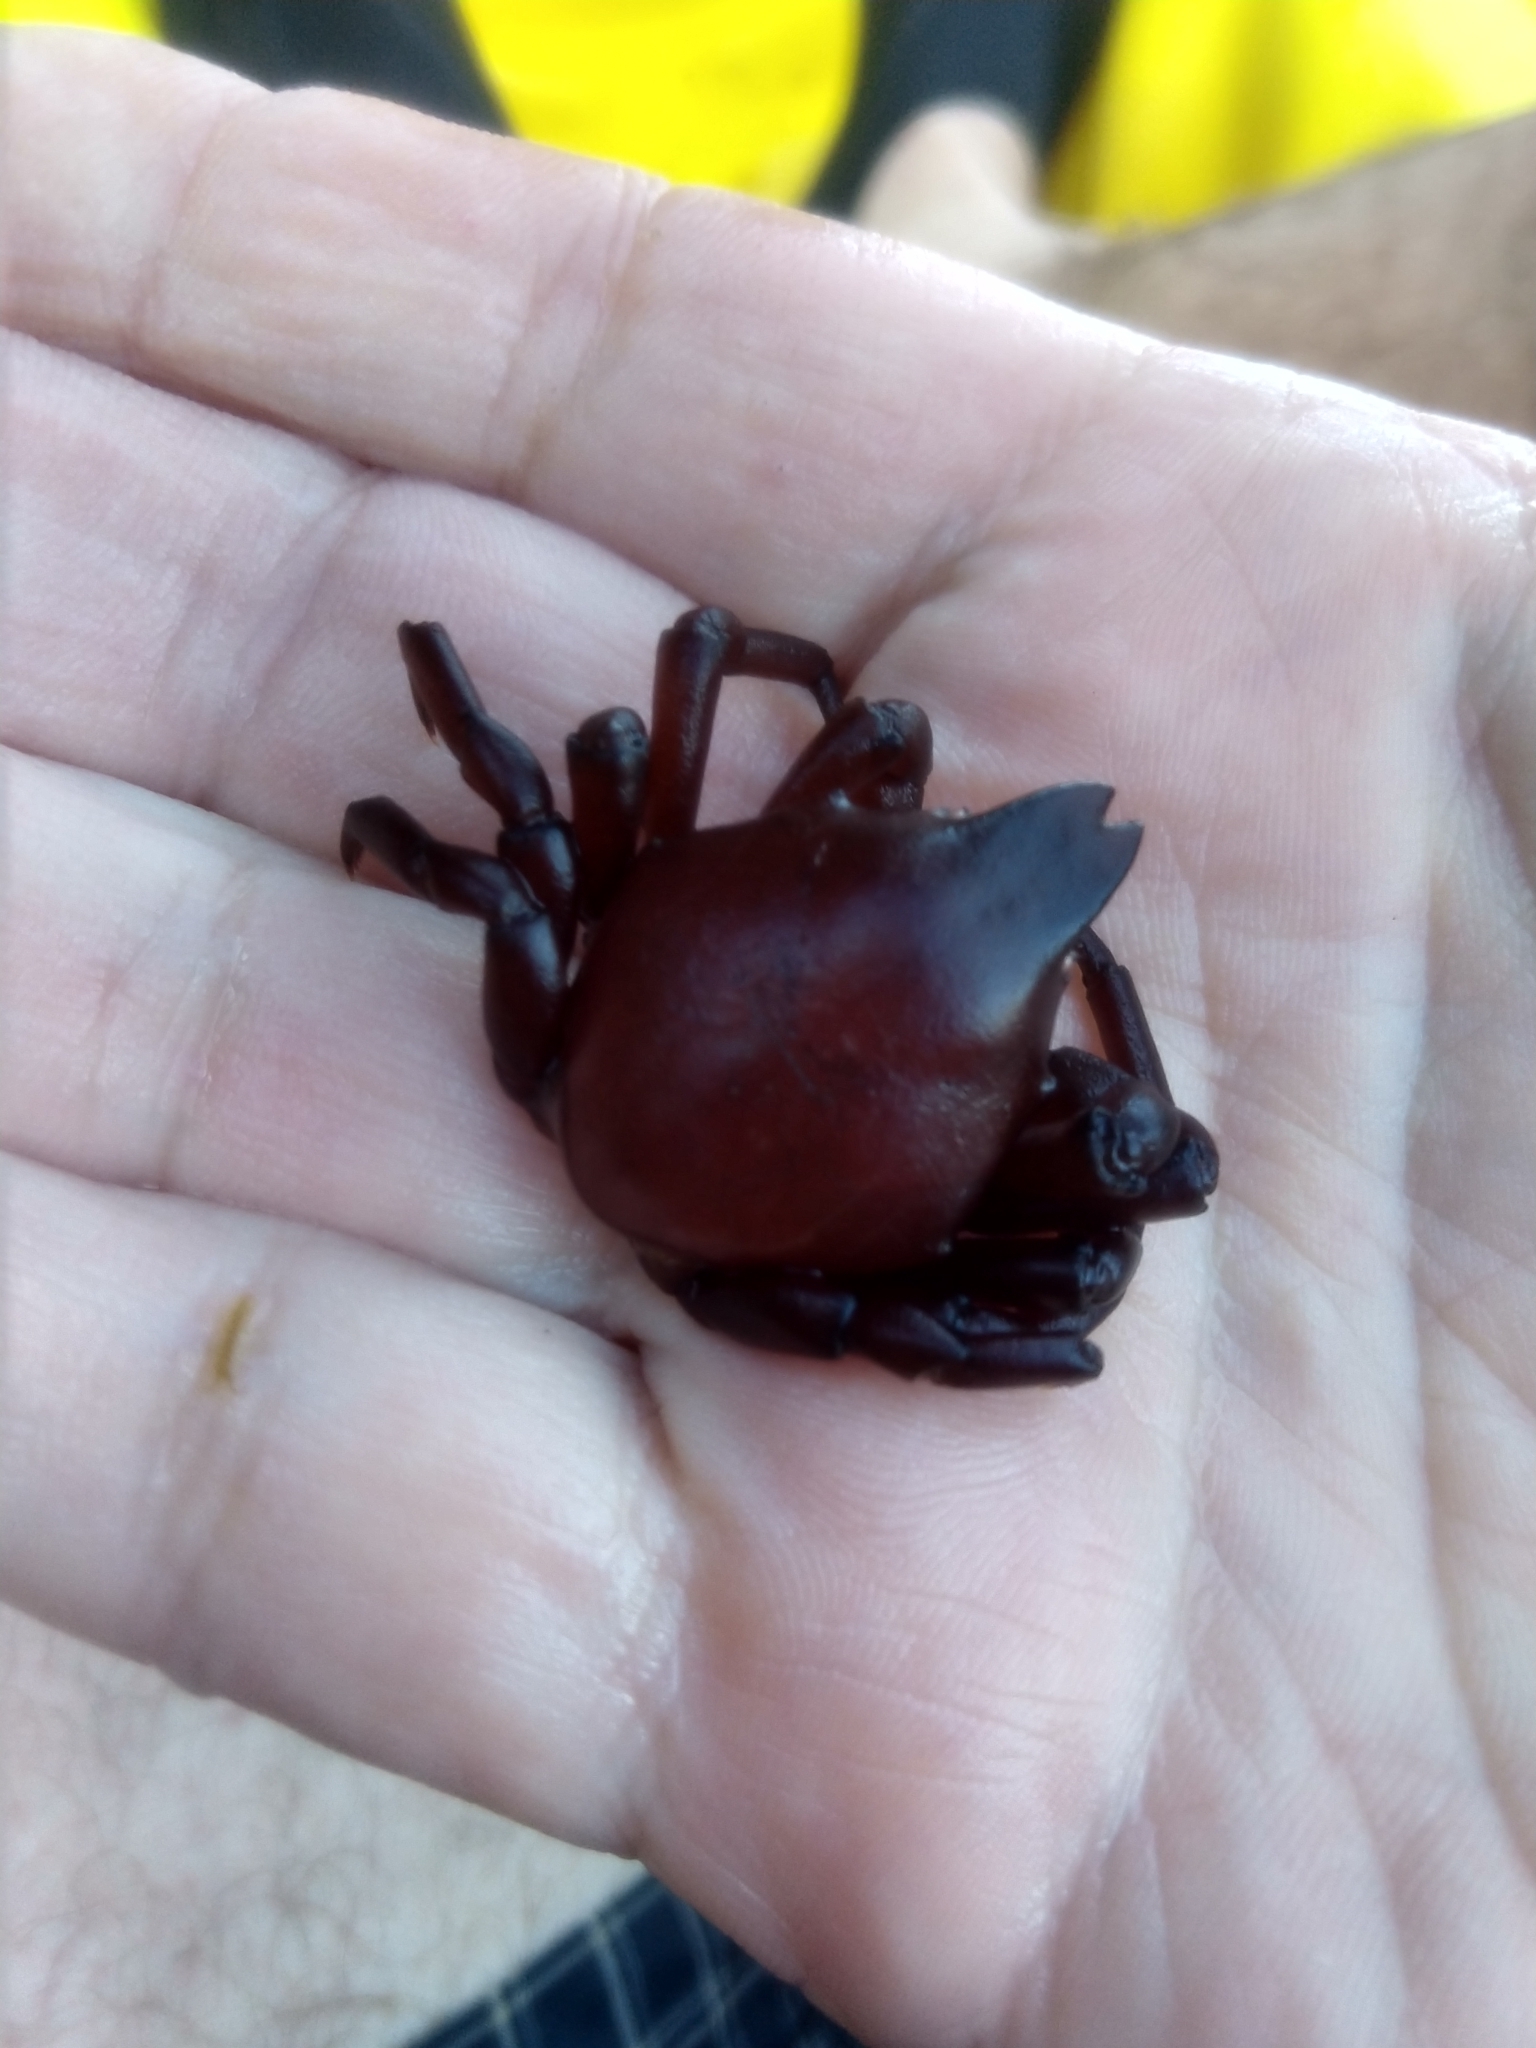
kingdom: Animalia
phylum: Arthropoda
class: Malacostraca
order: Decapoda
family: Epialtidae
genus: Taliepus
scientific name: Taliepus nuttallii
